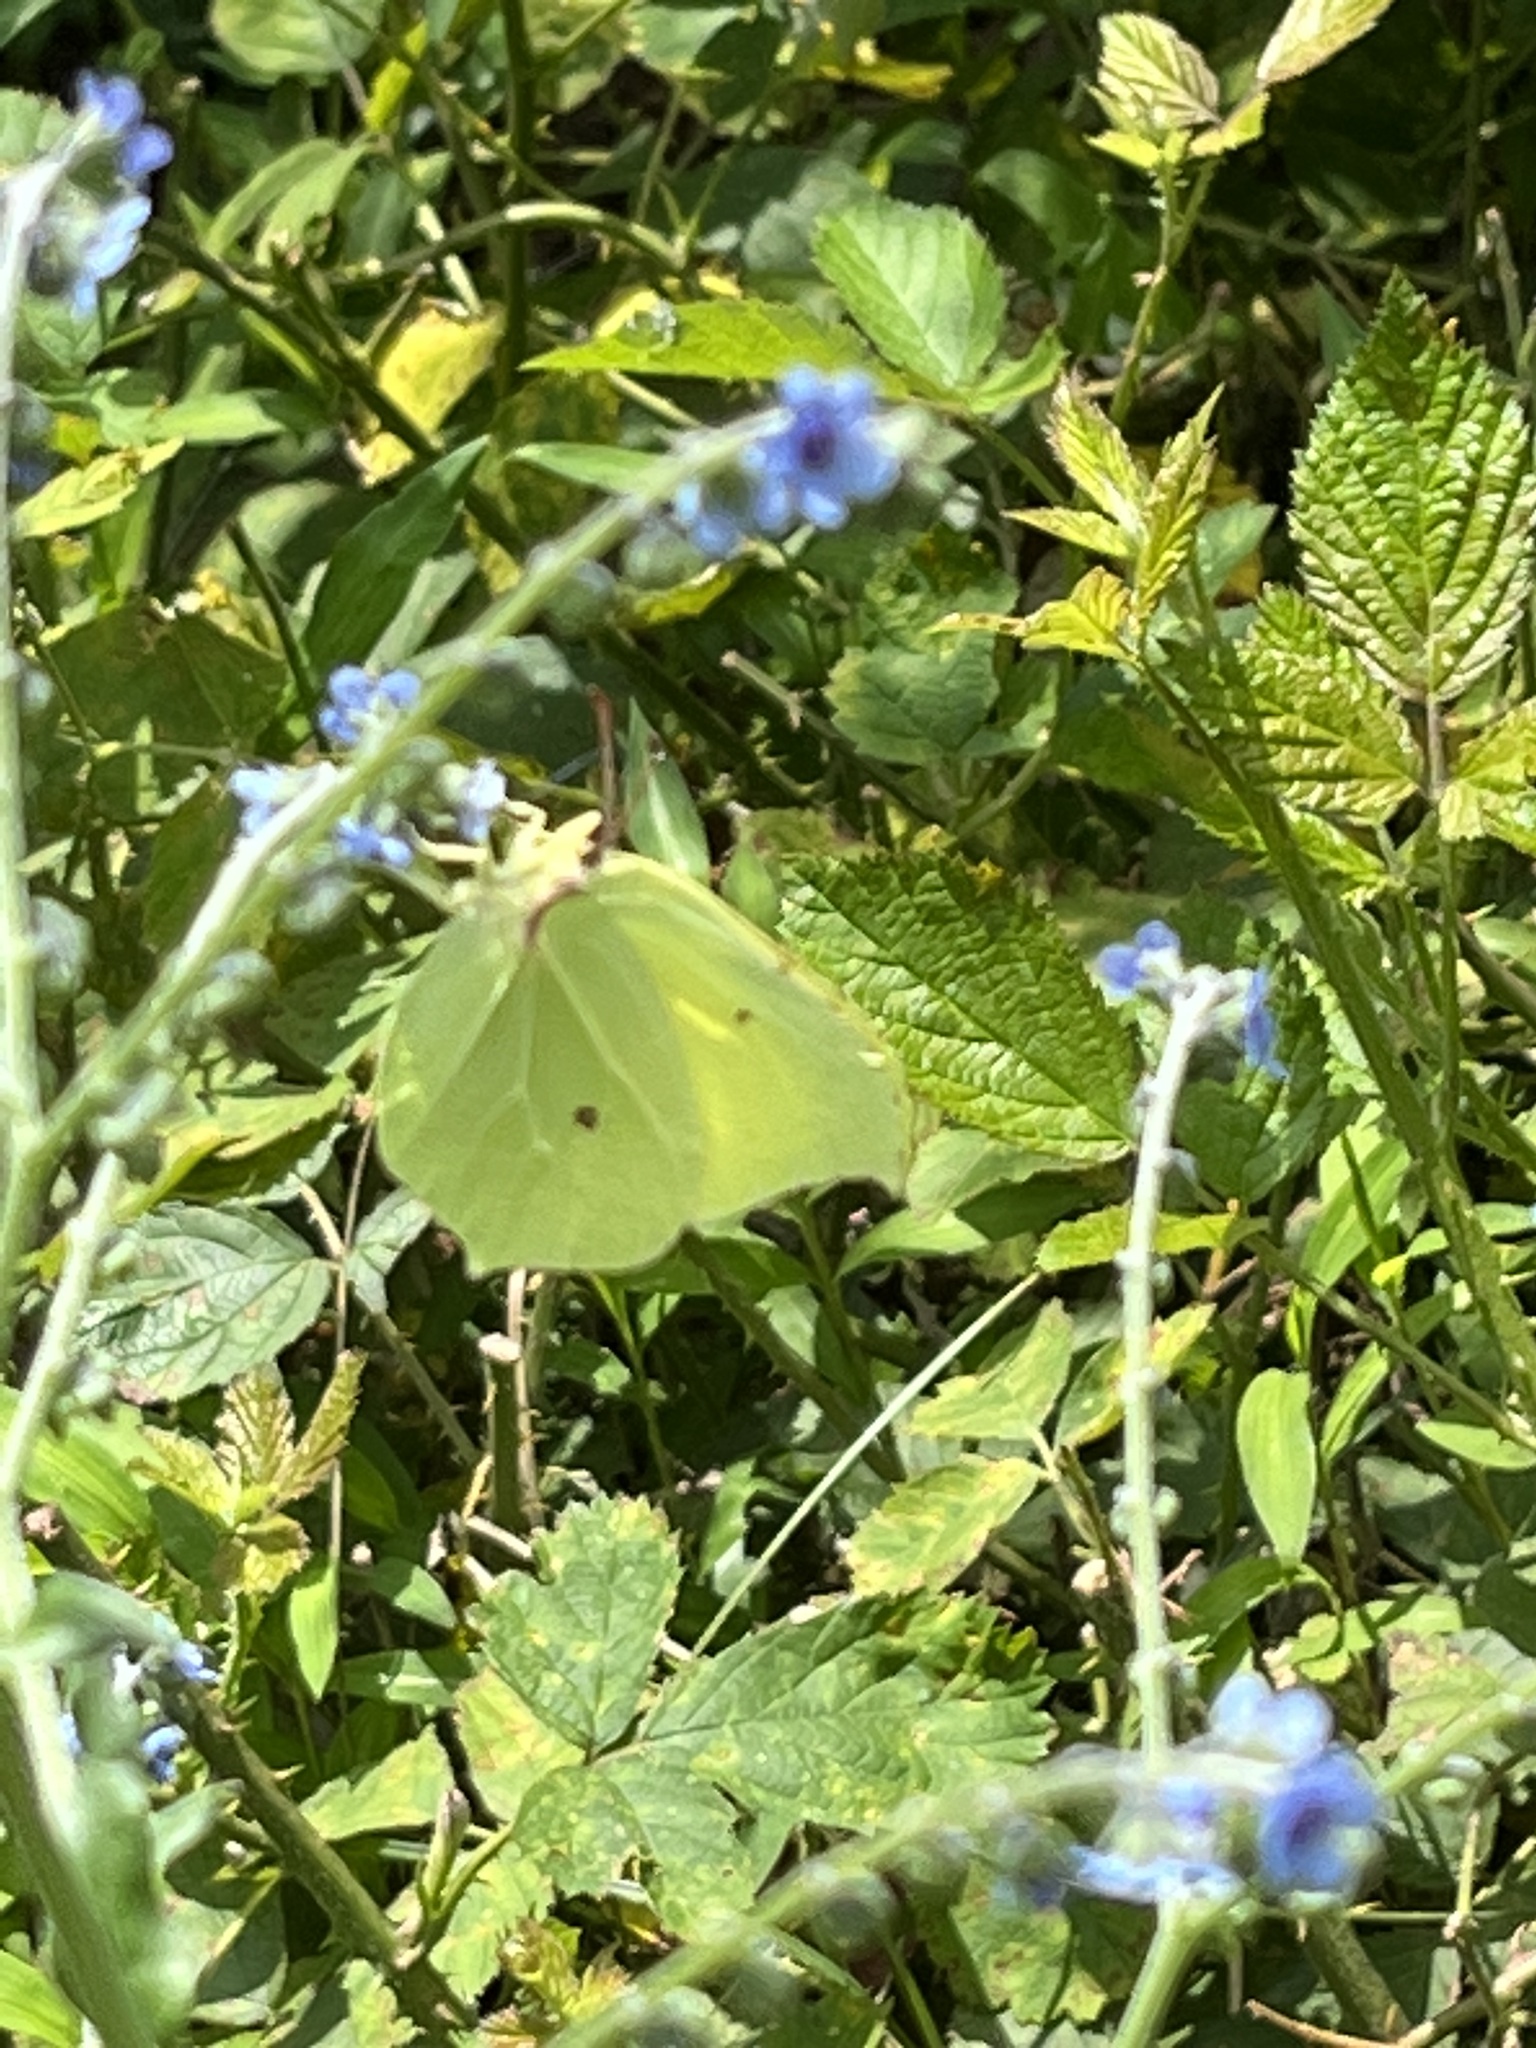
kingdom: Animalia
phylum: Arthropoda
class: Insecta
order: Lepidoptera
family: Pieridae
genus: Gonepteryx
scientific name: Gonepteryx rhamni
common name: Brimstone
